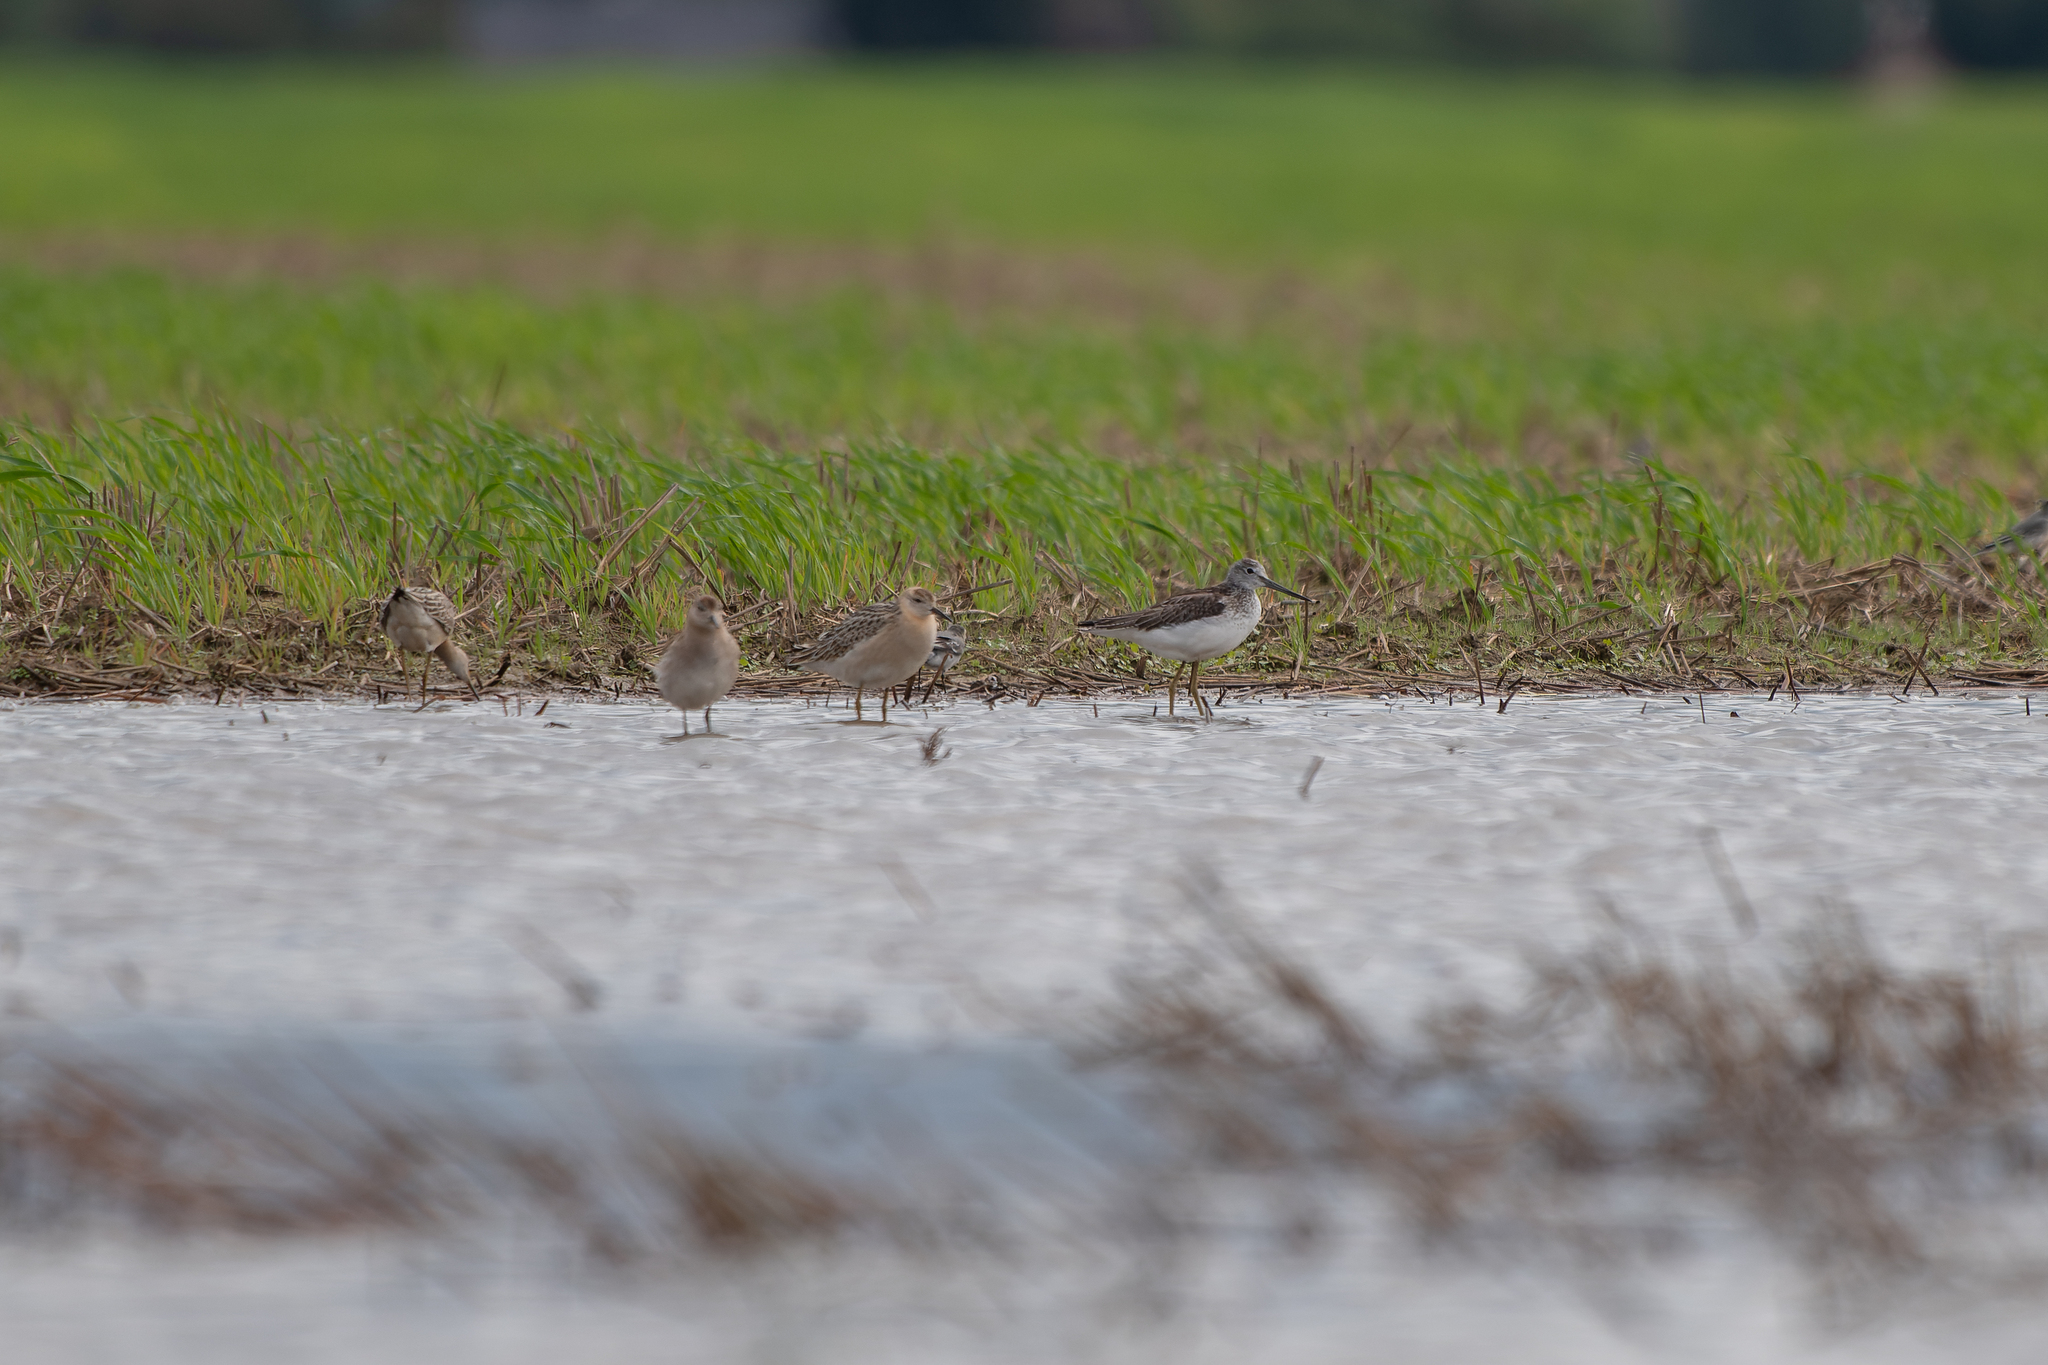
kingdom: Animalia
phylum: Chordata
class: Aves
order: Charadriiformes
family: Scolopacidae
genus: Tringa
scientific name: Tringa nebularia
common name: Common greenshank
